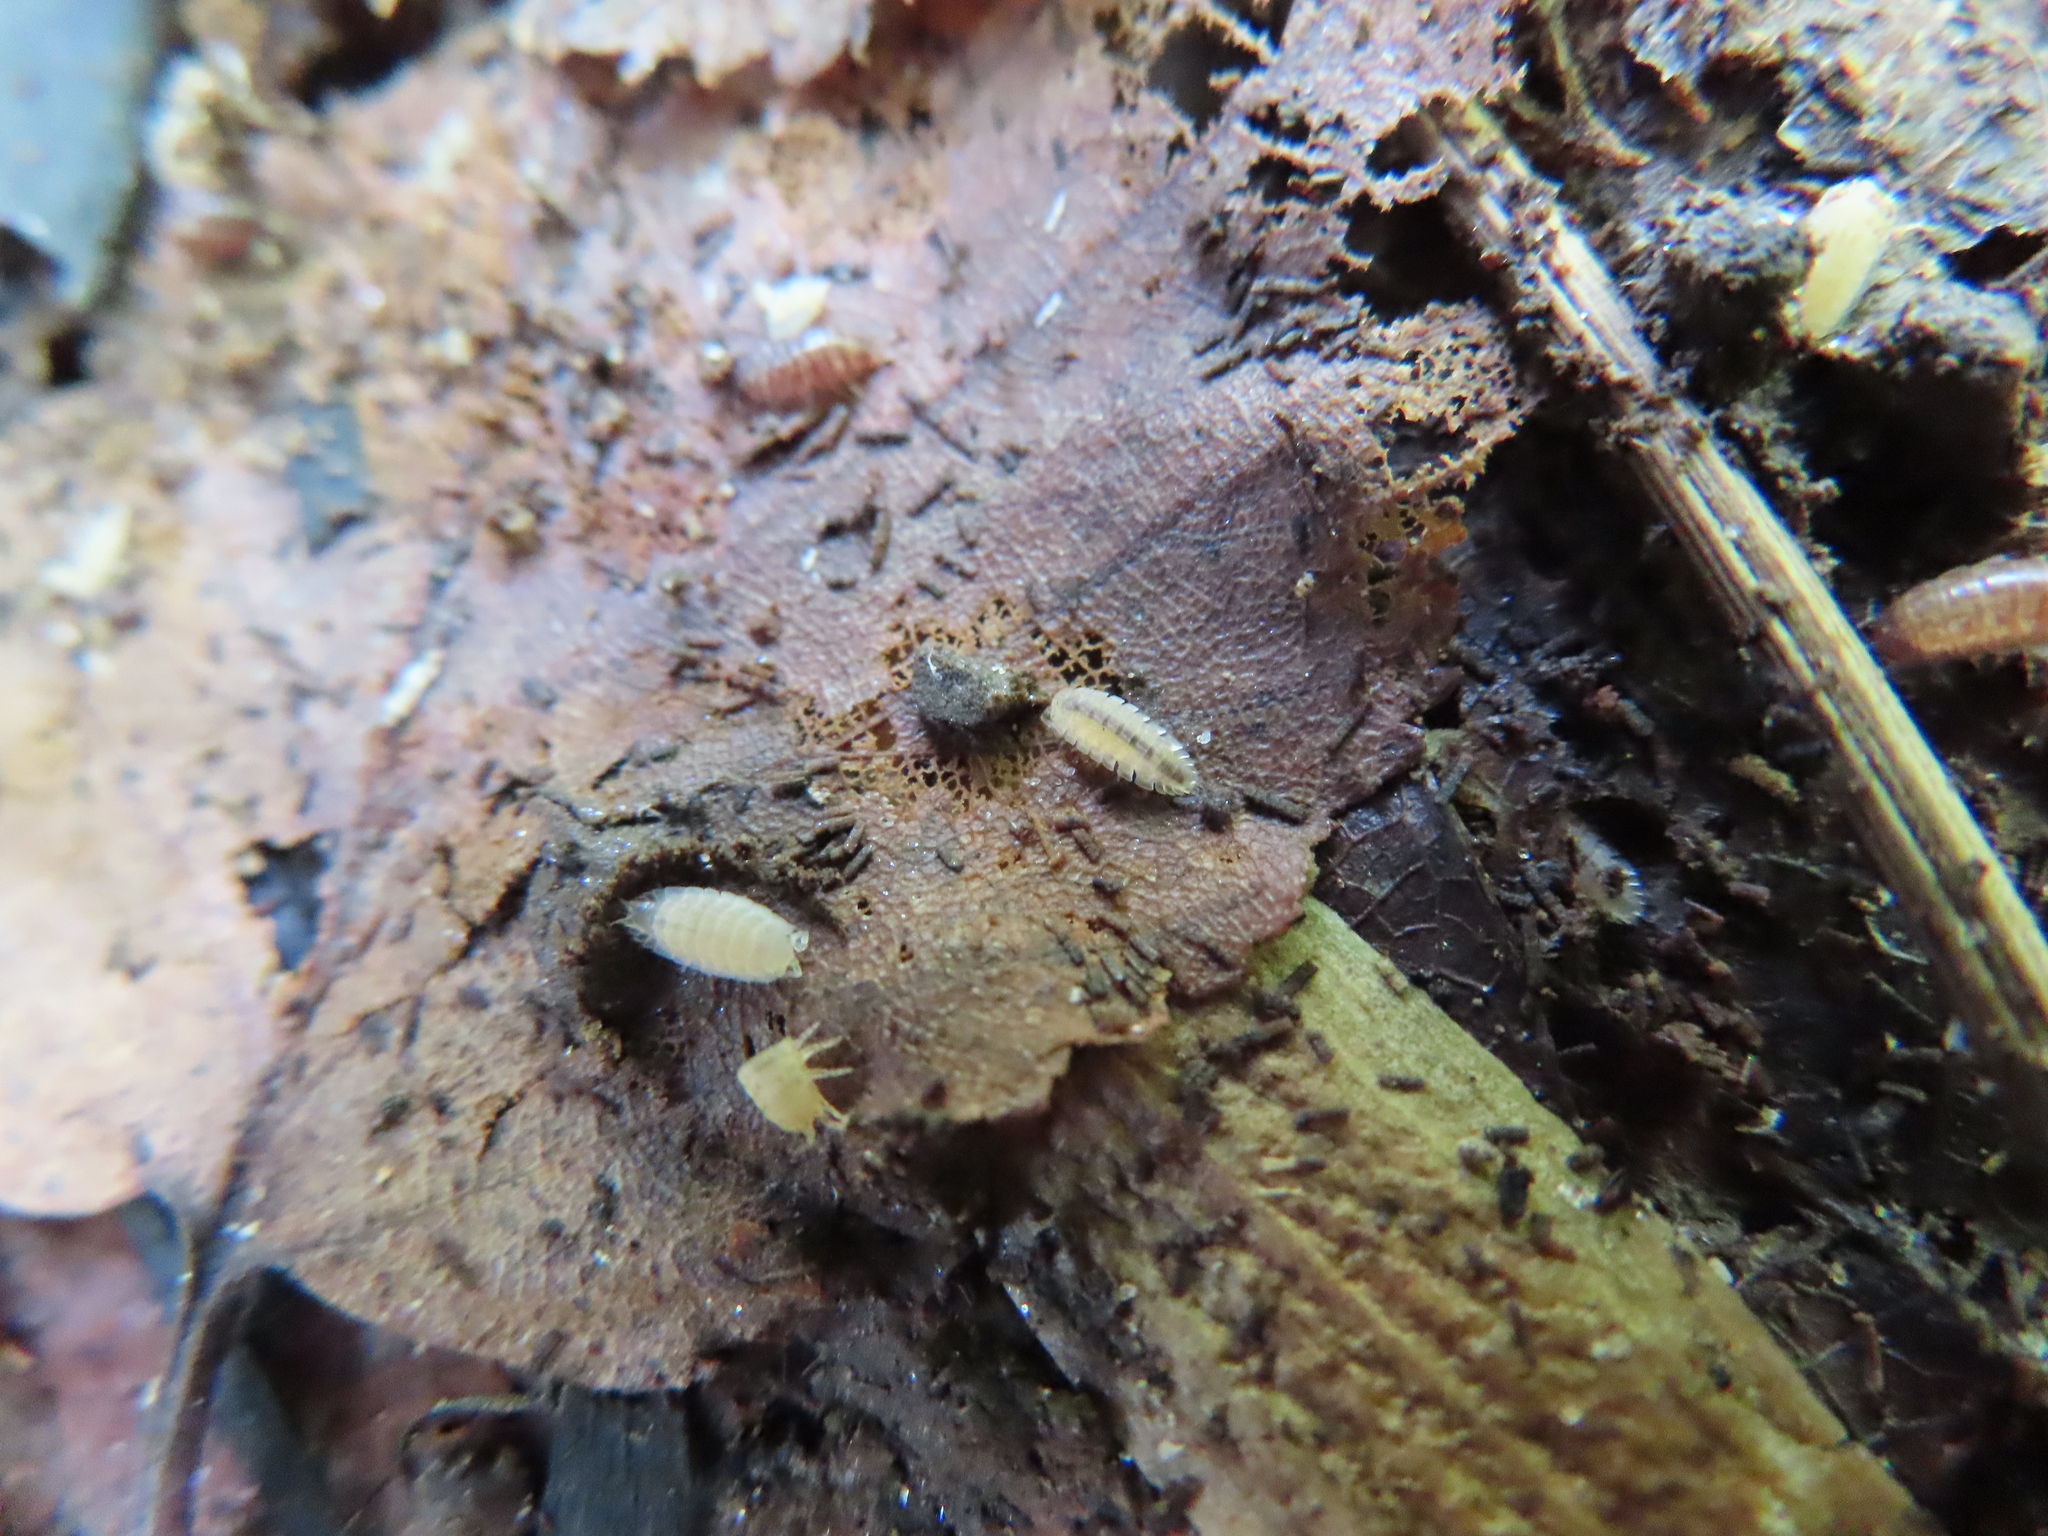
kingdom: Animalia
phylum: Arthropoda
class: Malacostraca
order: Isopoda
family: Trichoniscidae
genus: Haplophthalmus
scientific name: Haplophthalmus danicus
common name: Pillbug
